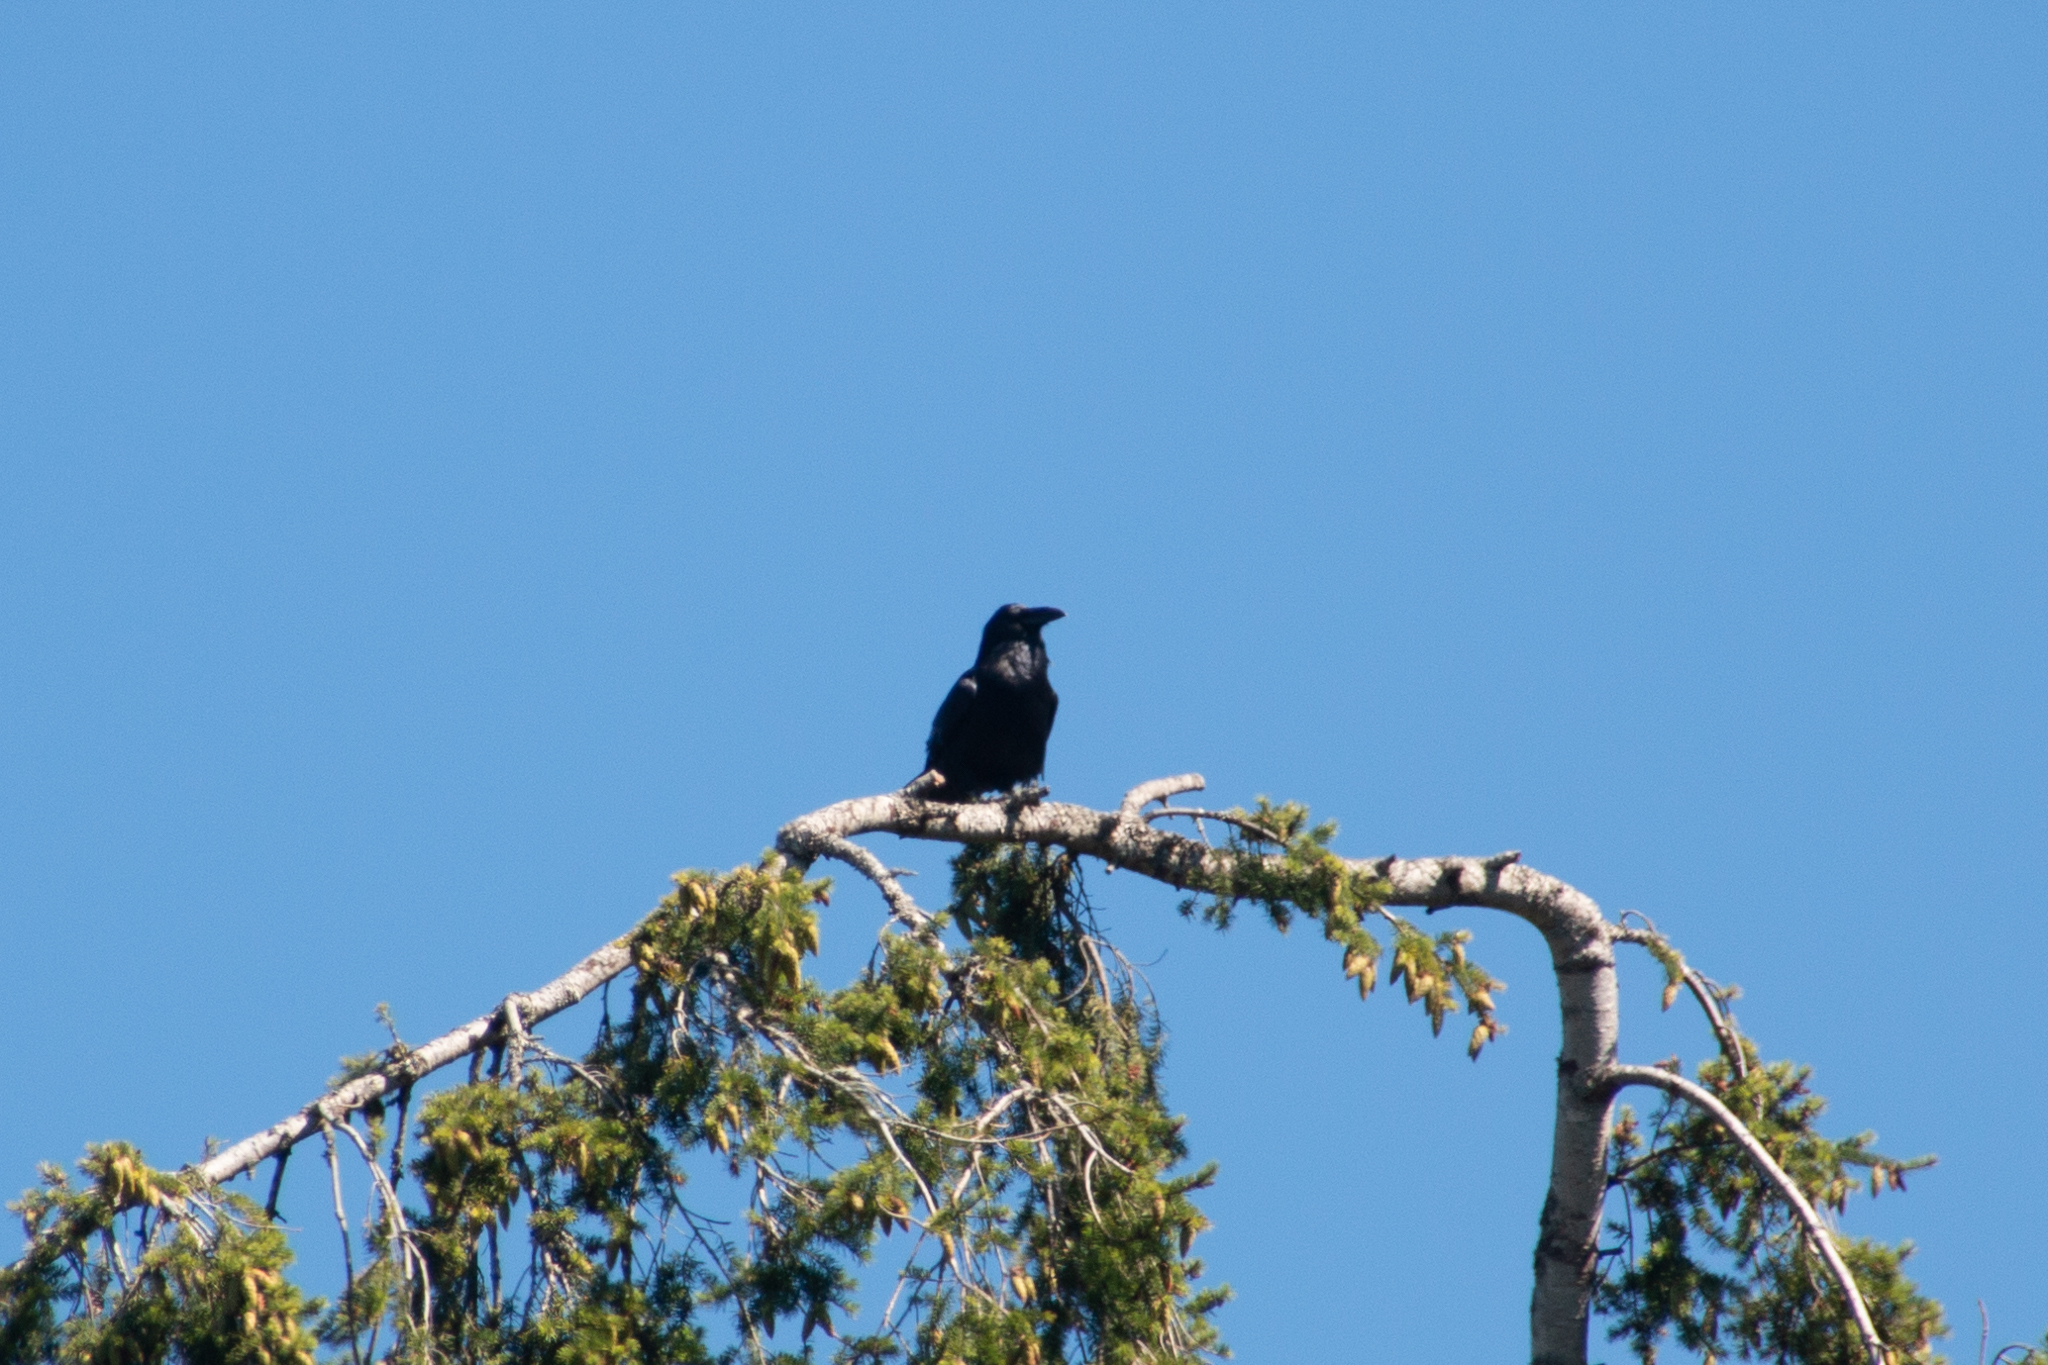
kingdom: Animalia
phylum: Chordata
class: Aves
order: Passeriformes
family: Corvidae
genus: Corvus
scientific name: Corvus corax
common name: Common raven
